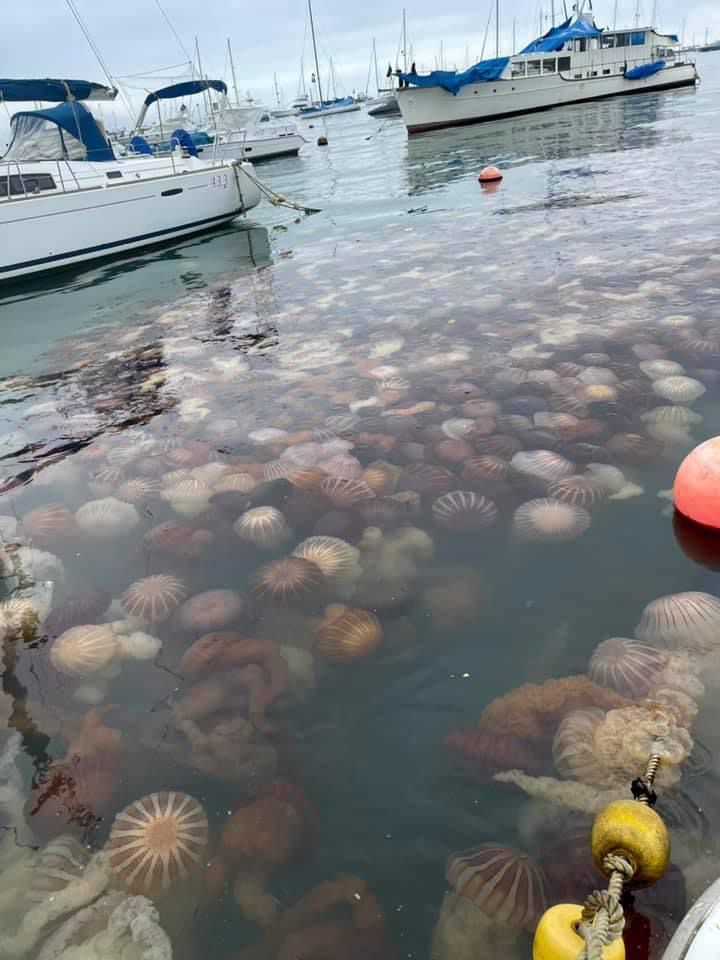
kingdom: Animalia
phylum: Cnidaria
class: Scyphozoa
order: Semaeostomeae
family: Pelagiidae
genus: Chrysaora
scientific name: Chrysaora plocamia
